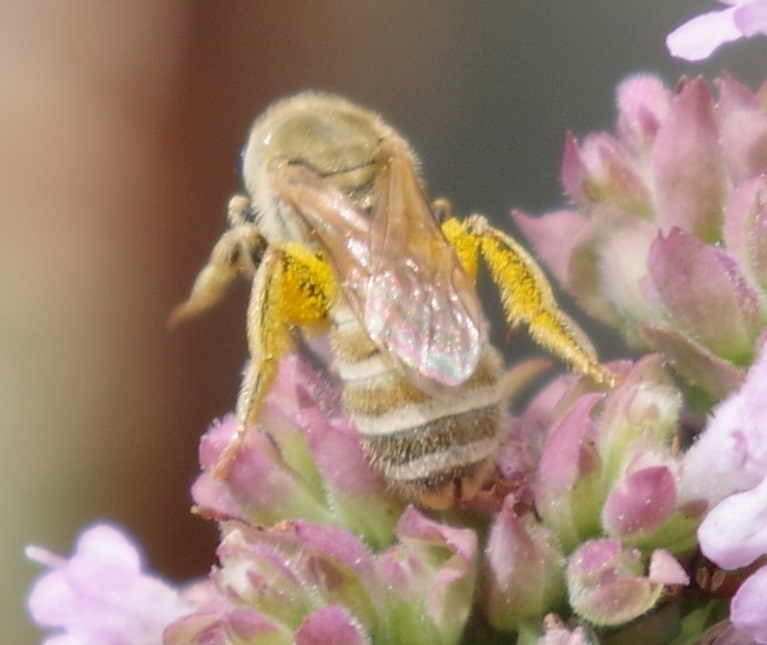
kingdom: Animalia
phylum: Arthropoda
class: Insecta
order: Hymenoptera
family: Halictidae
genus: Halictus
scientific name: Halictus subauratus
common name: Golden furrow bee
